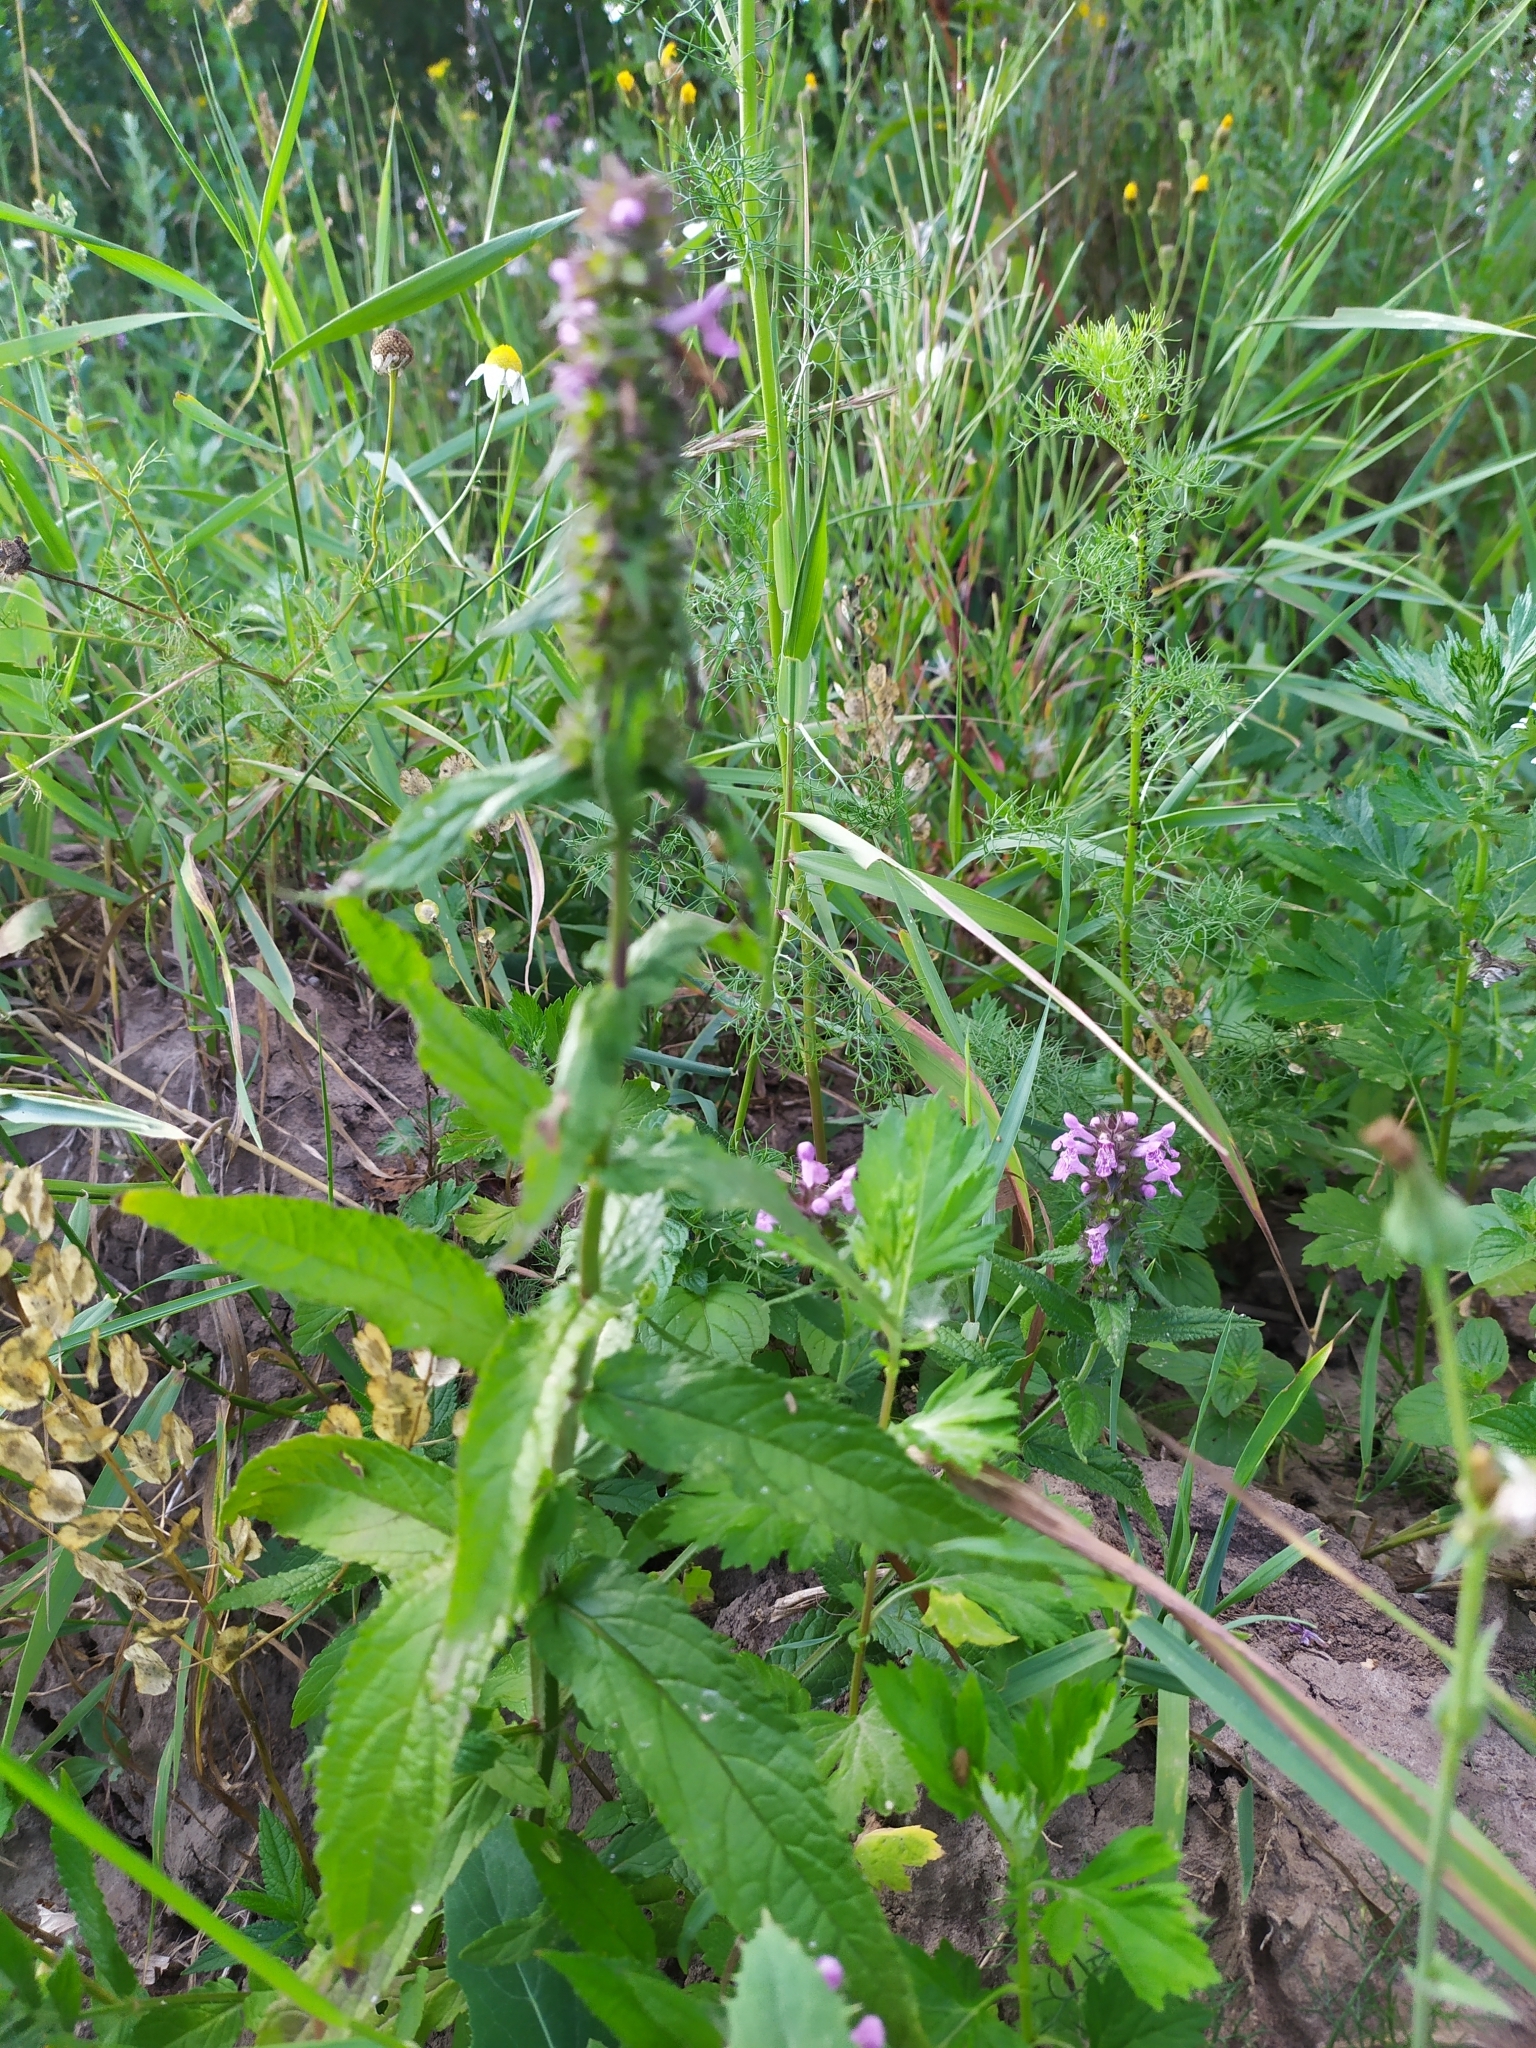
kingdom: Plantae
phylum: Tracheophyta
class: Magnoliopsida
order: Lamiales
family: Lamiaceae
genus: Stachys
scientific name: Stachys palustris
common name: Marsh woundwort
